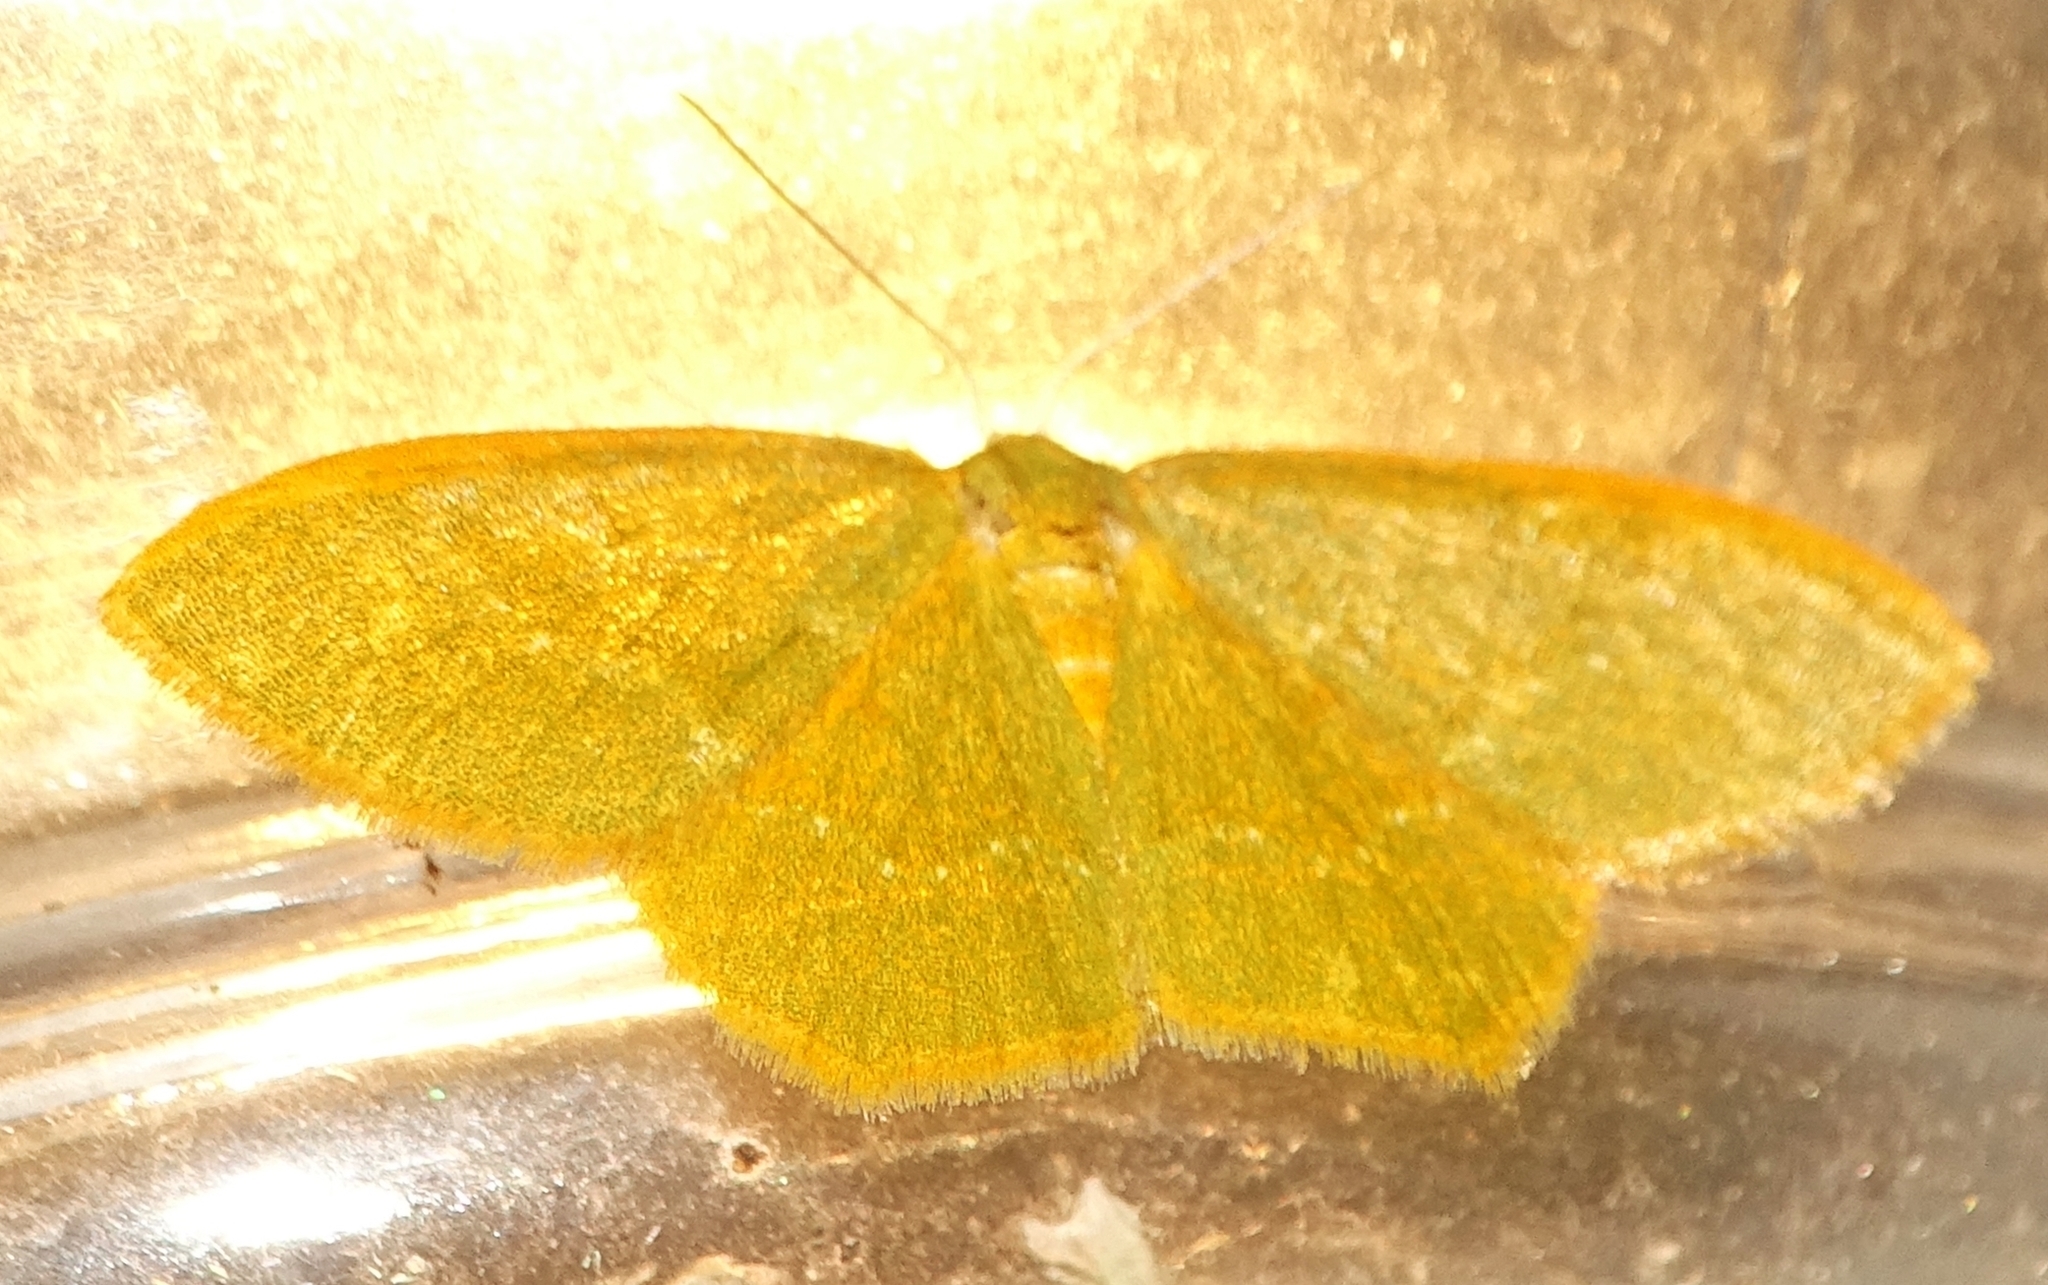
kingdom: Animalia
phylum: Arthropoda
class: Insecta
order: Lepidoptera
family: Geometridae
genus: Thalera
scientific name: Thalera pistasciaria
